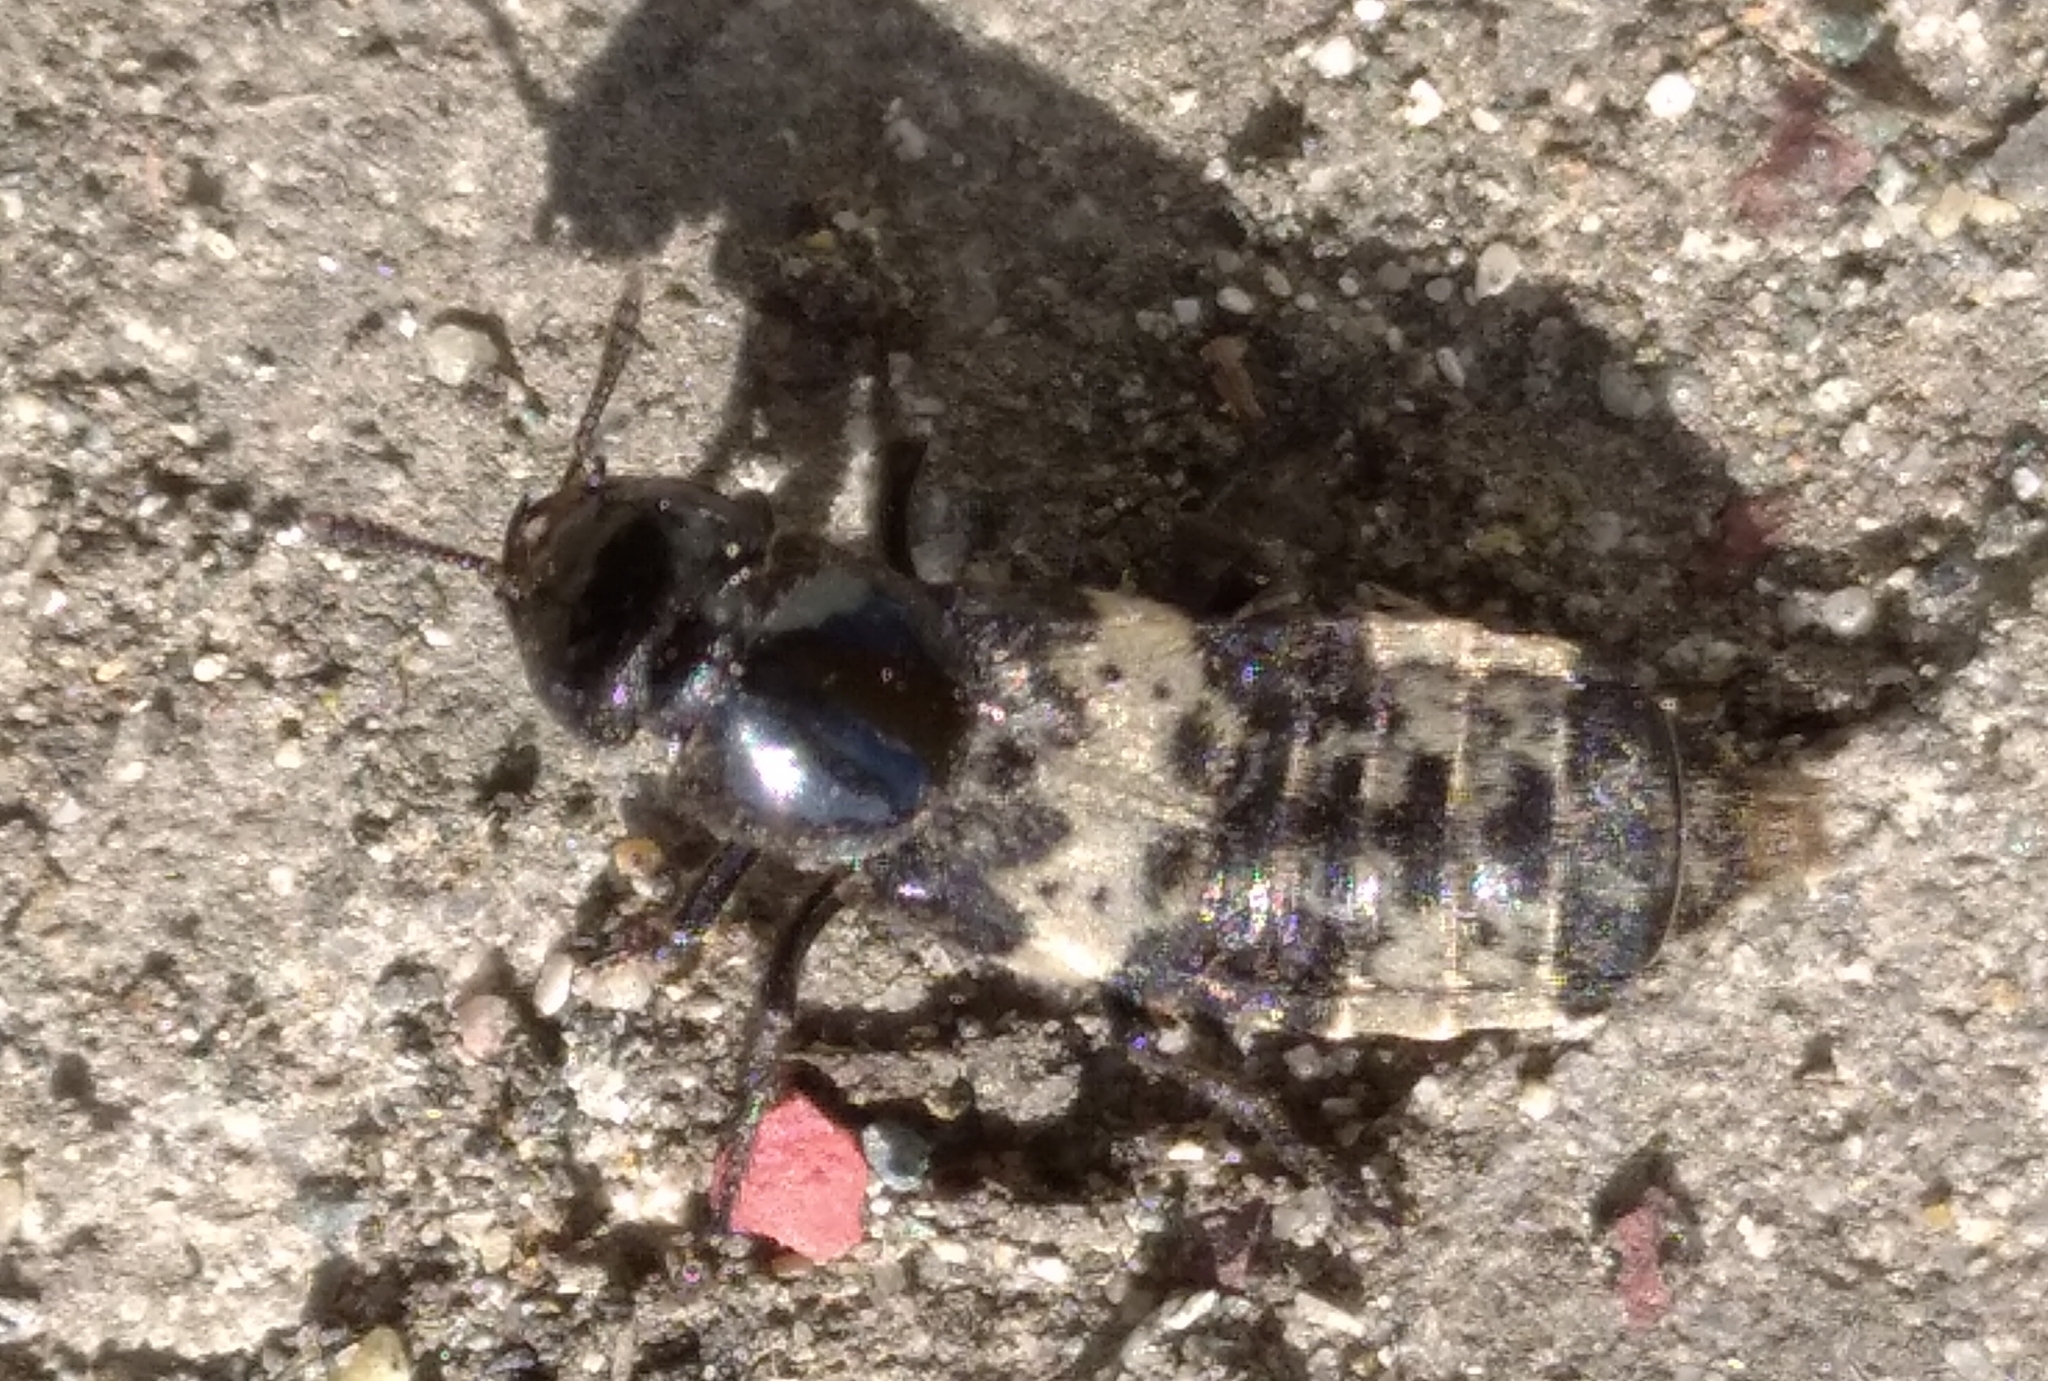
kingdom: Animalia
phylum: Arthropoda
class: Insecta
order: Coleoptera
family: Staphylinidae
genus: Creophilus
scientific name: Creophilus maxillosus
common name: Hairy rove beetle
